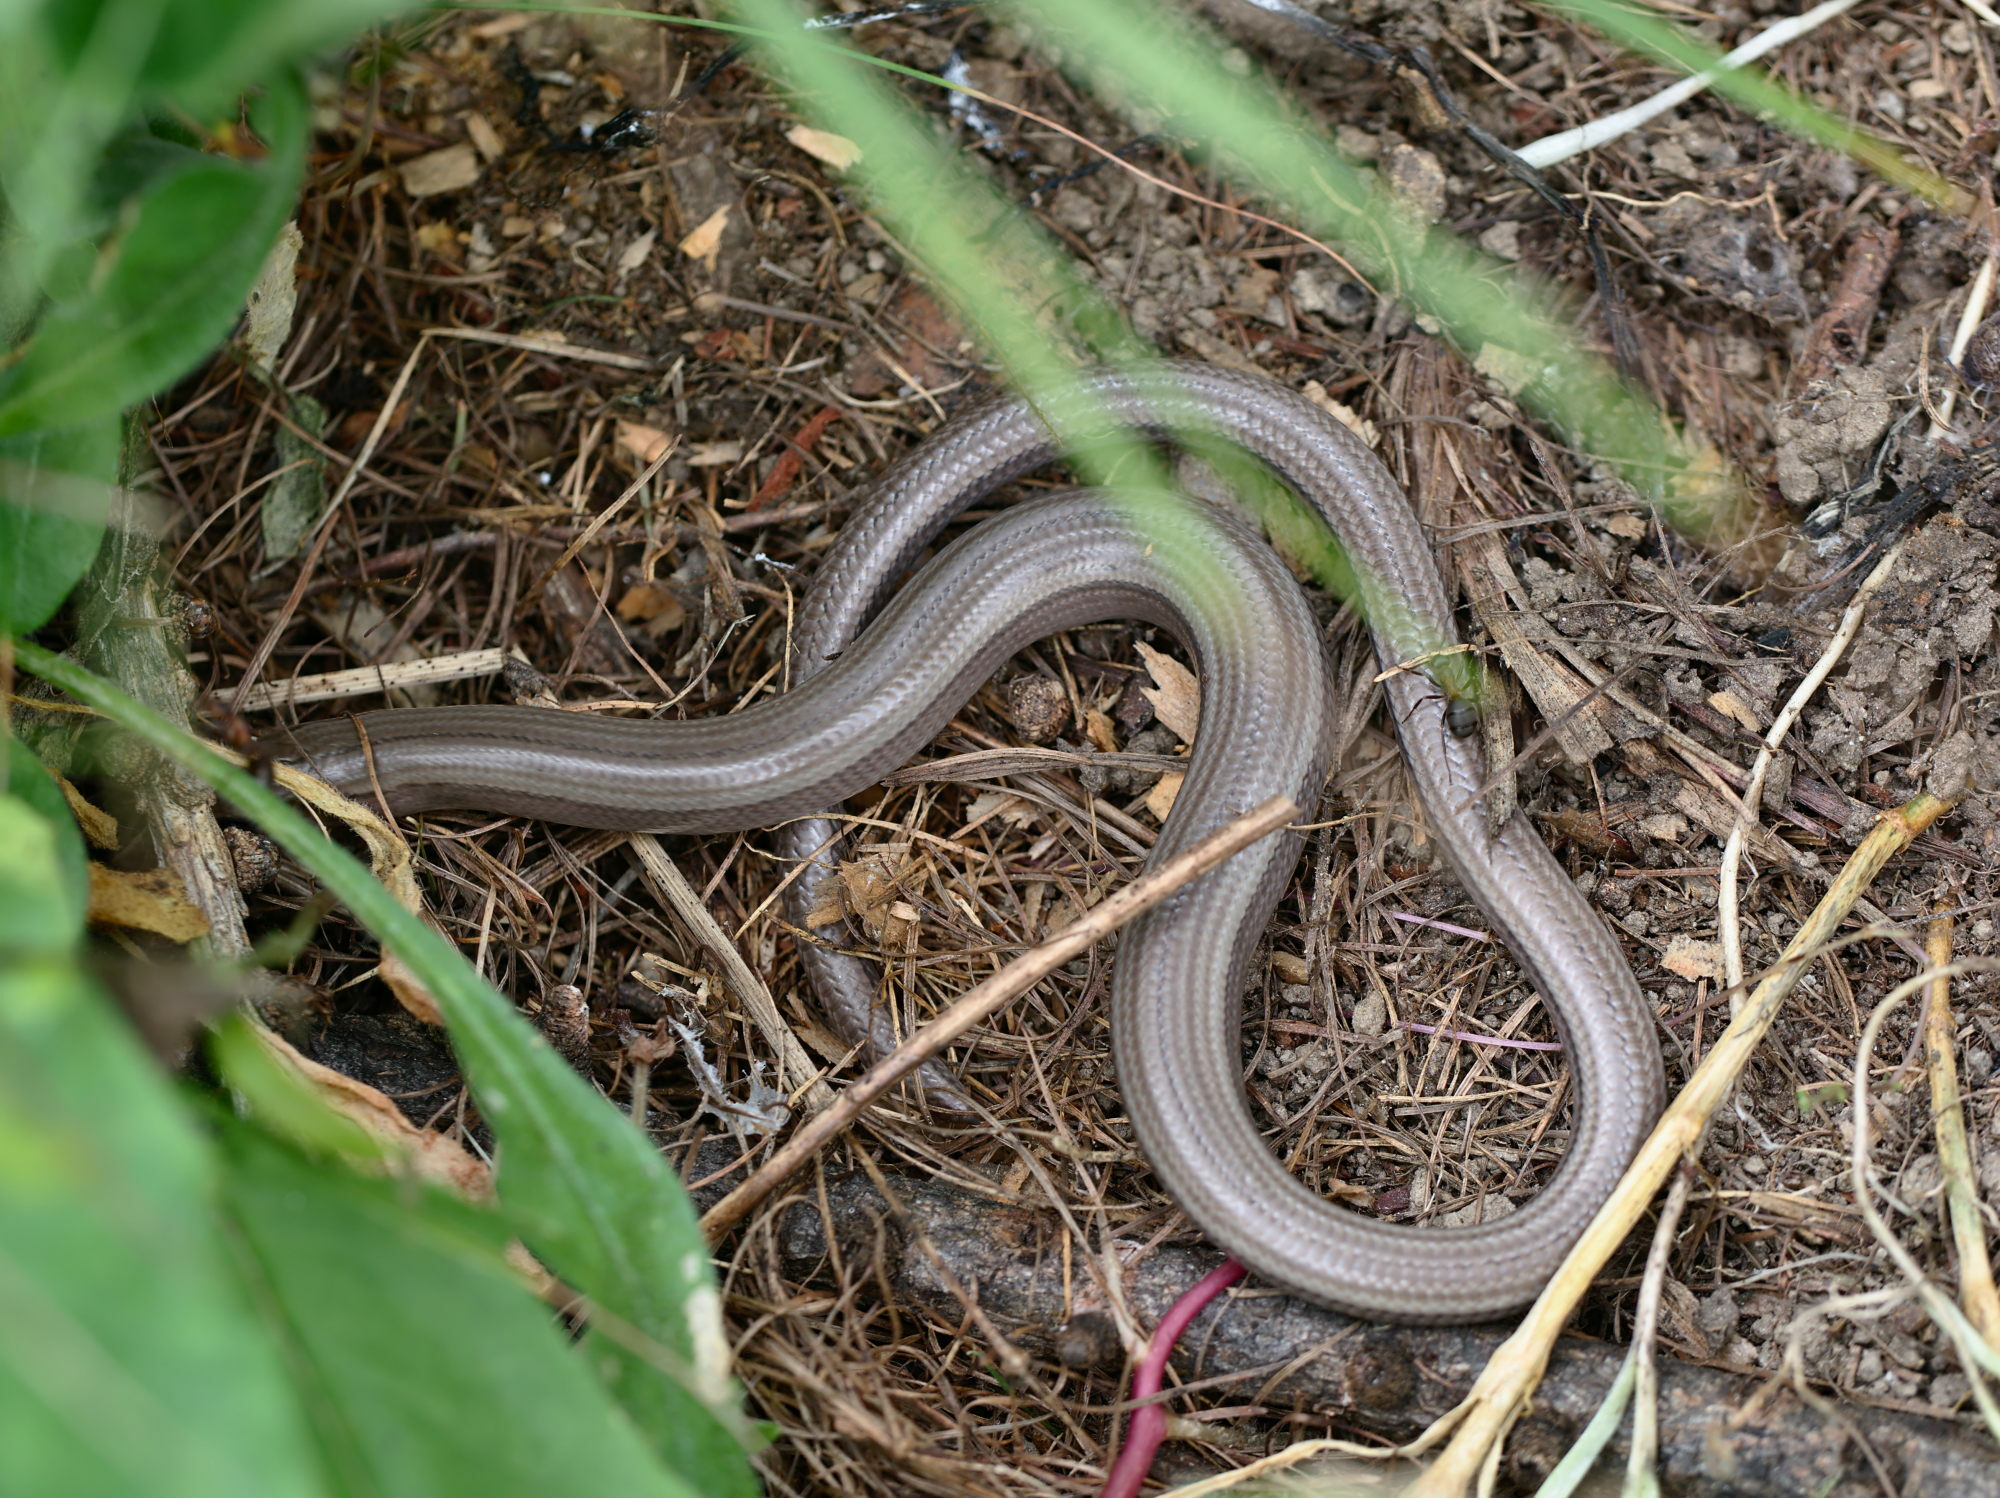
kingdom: Animalia
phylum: Chordata
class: Squamata
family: Anguidae
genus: Anguis
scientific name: Anguis veronensis
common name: Italian slow worm
